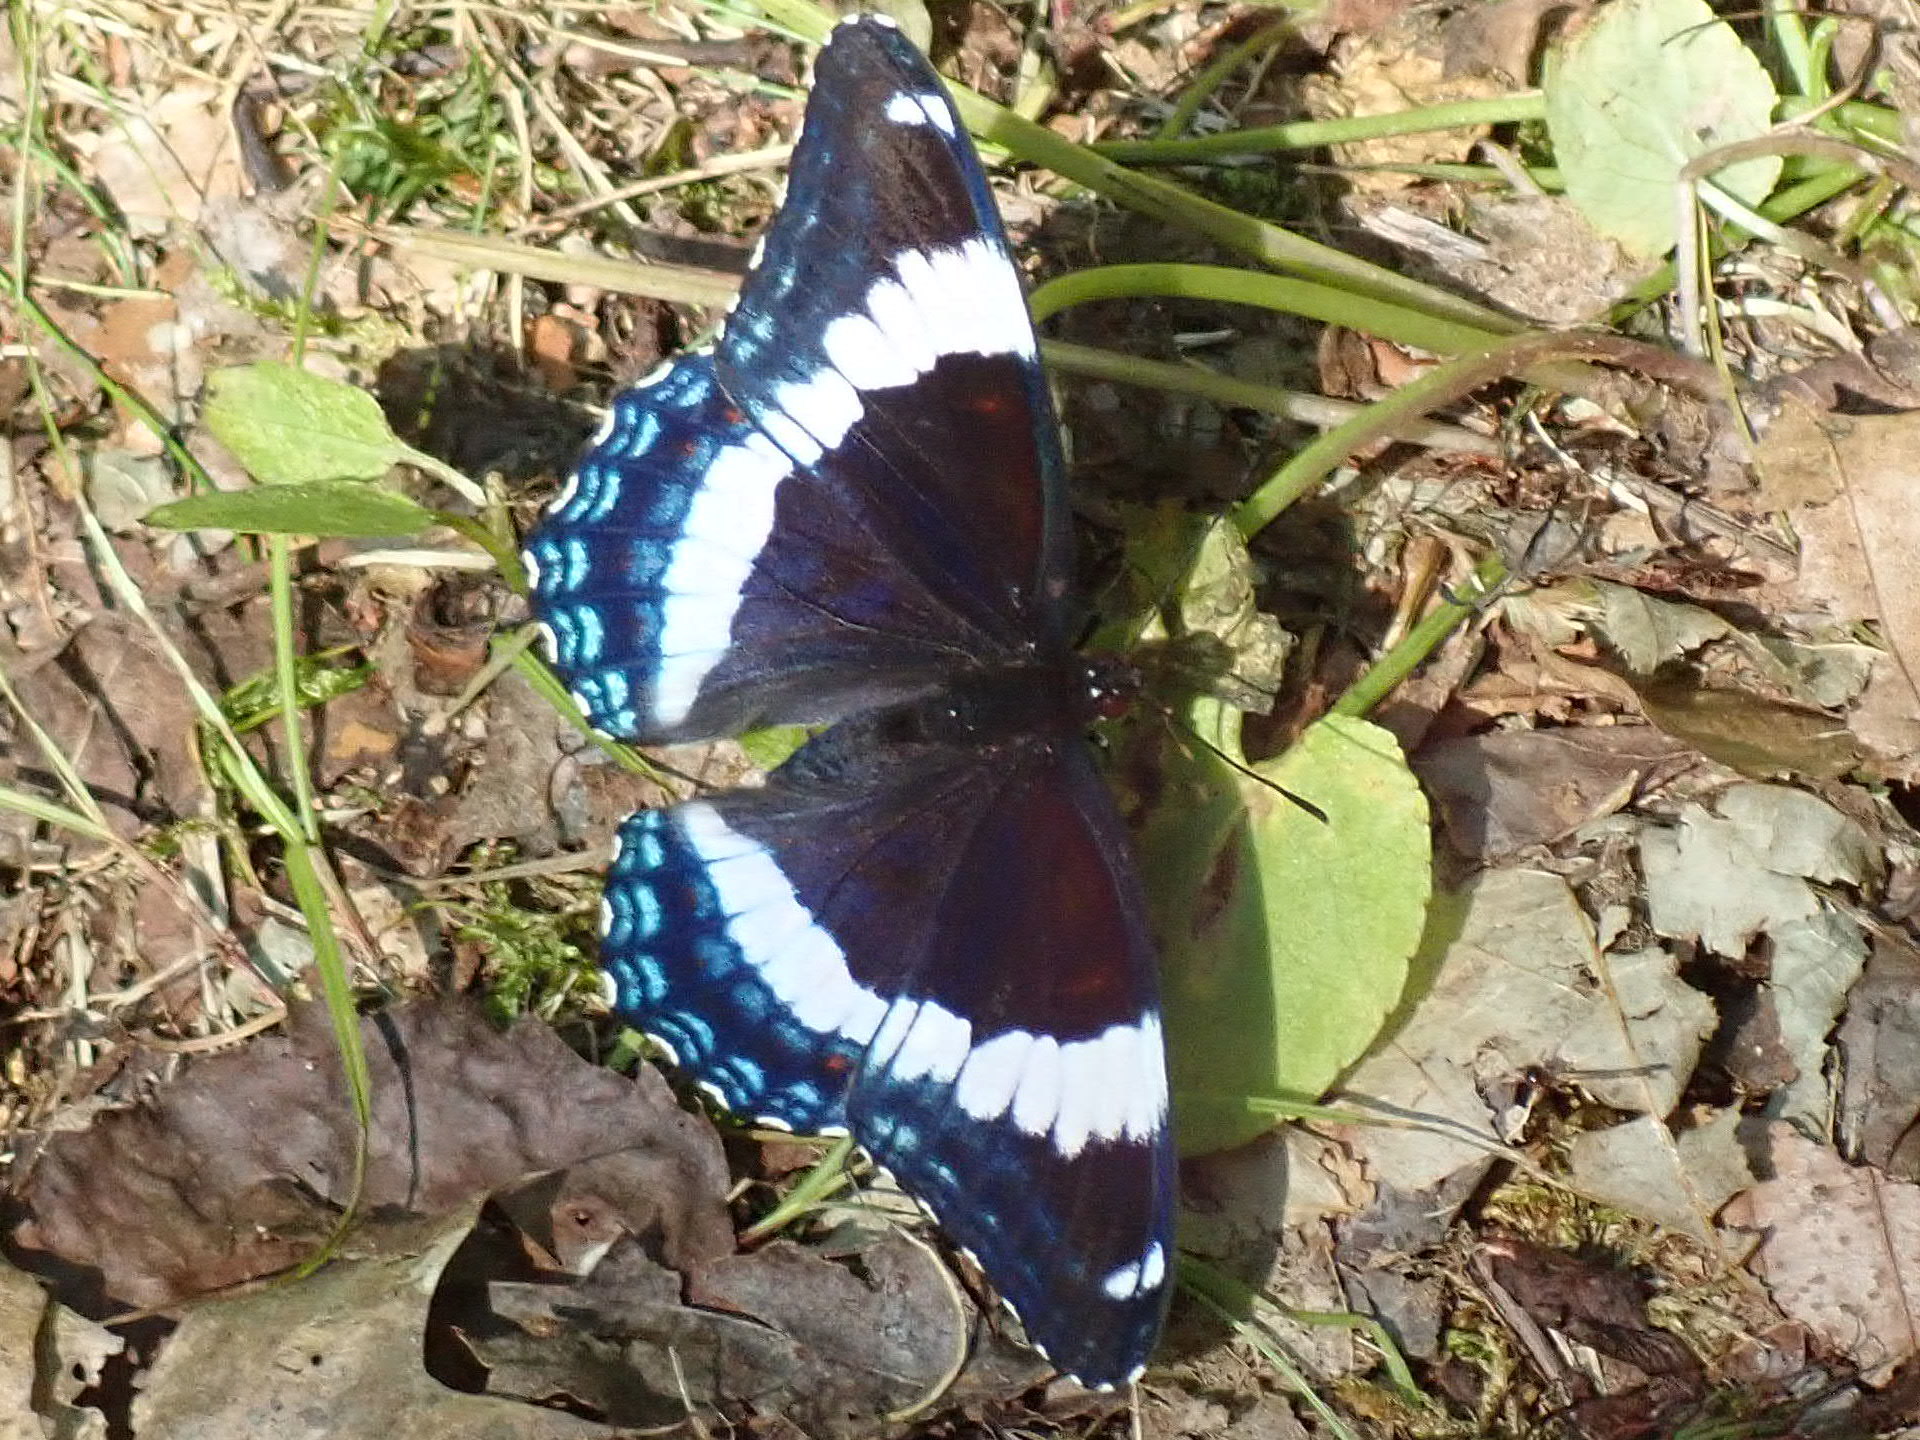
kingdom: Animalia
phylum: Arthropoda
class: Insecta
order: Lepidoptera
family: Nymphalidae
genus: Limenitis
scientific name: Limenitis arthemis
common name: Red-spotted admiral
